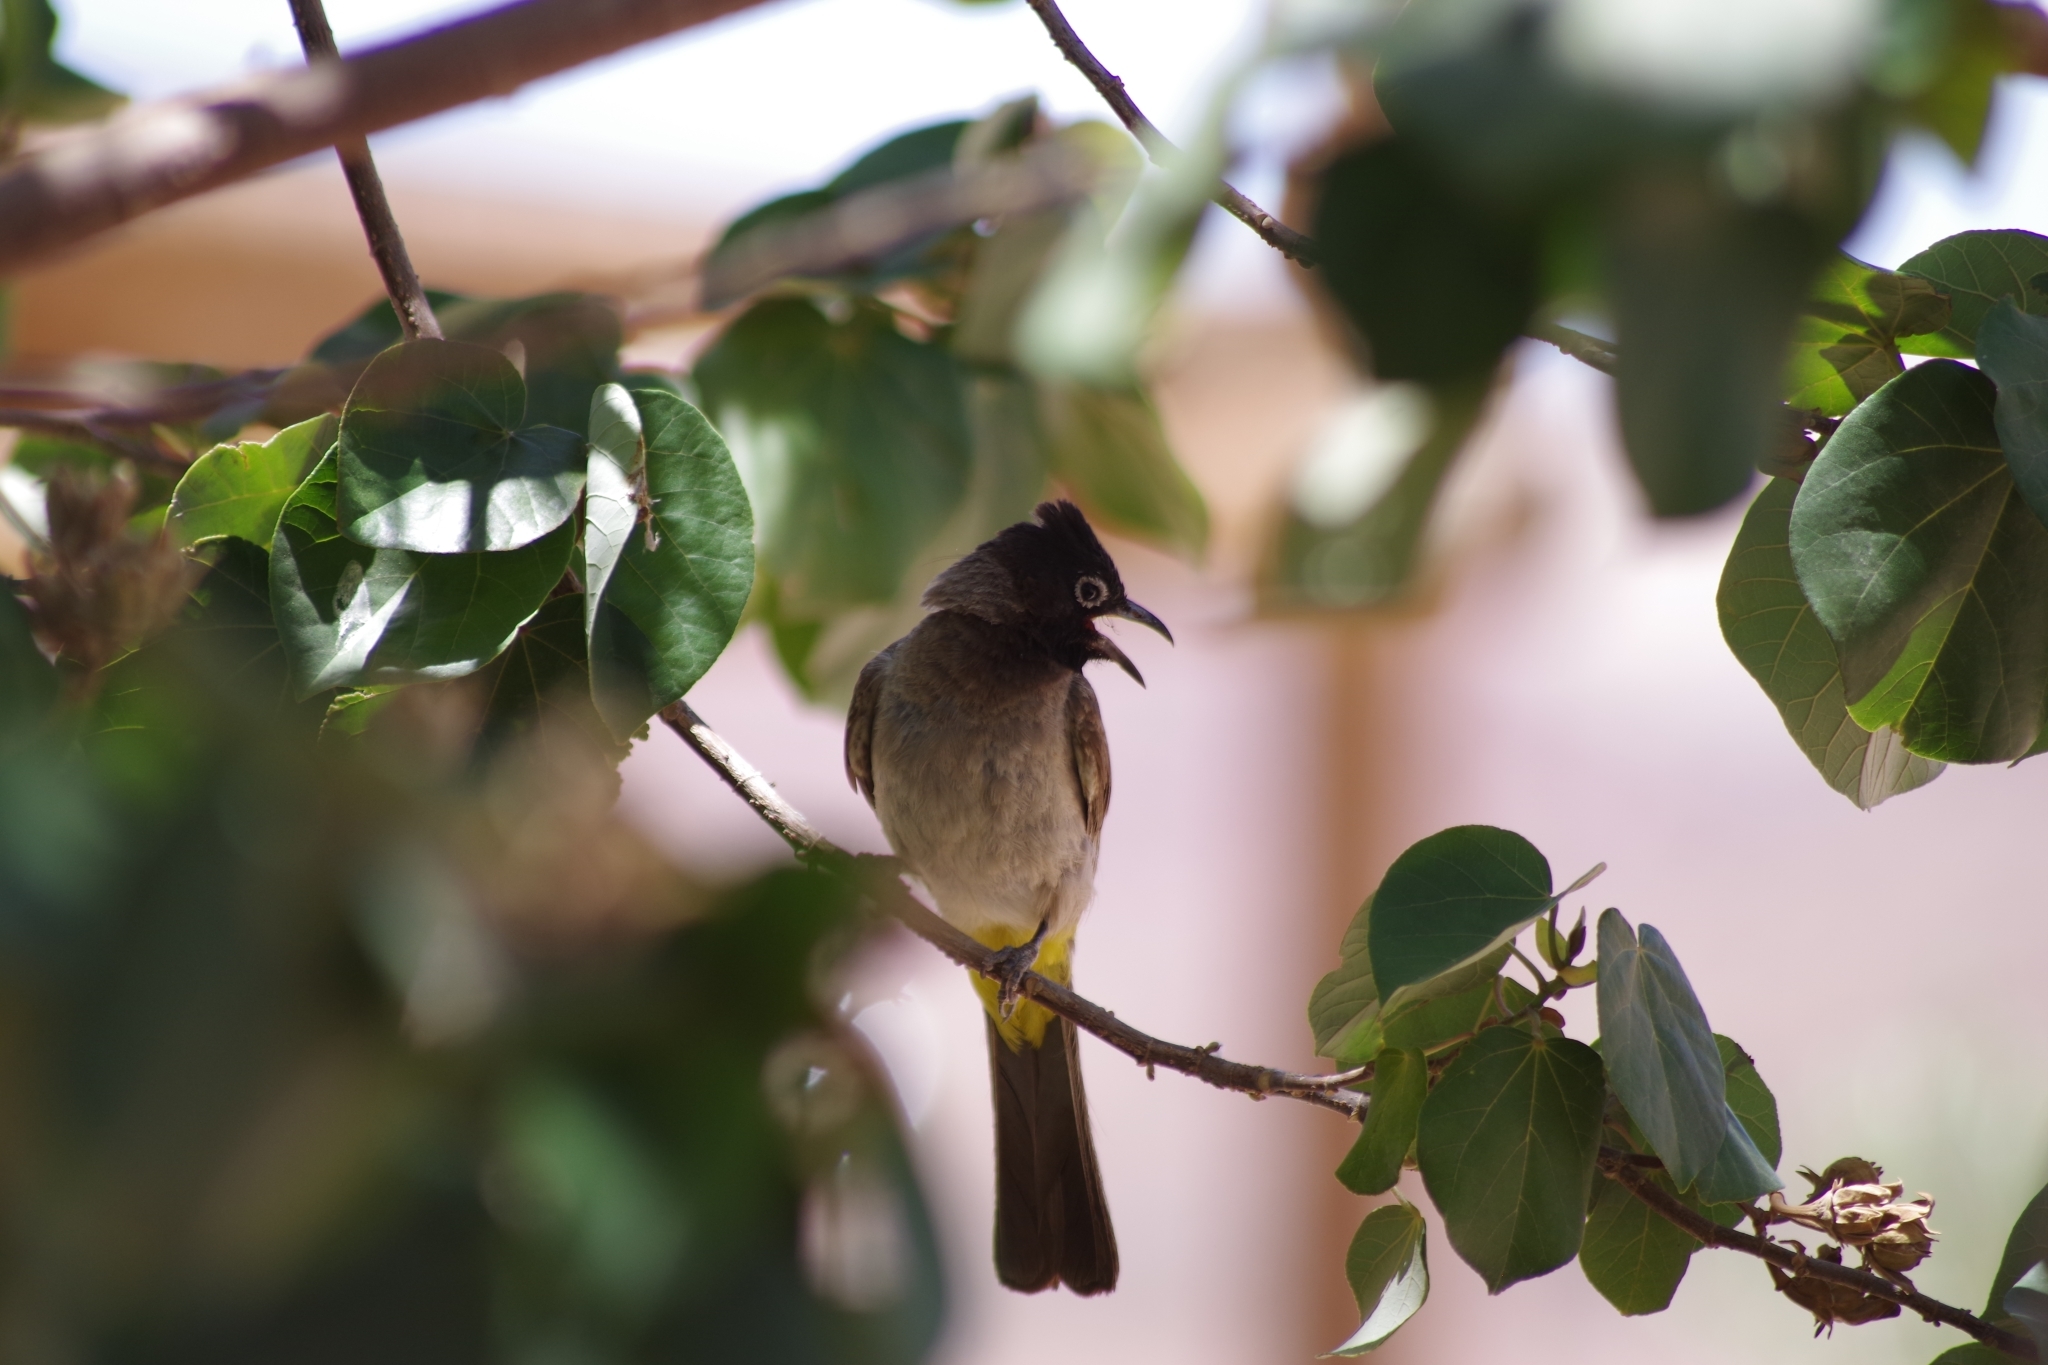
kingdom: Animalia
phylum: Chordata
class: Aves
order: Passeriformes
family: Pycnonotidae
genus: Pycnonotus
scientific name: Pycnonotus xanthopygos
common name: White-spectacled bulbul
